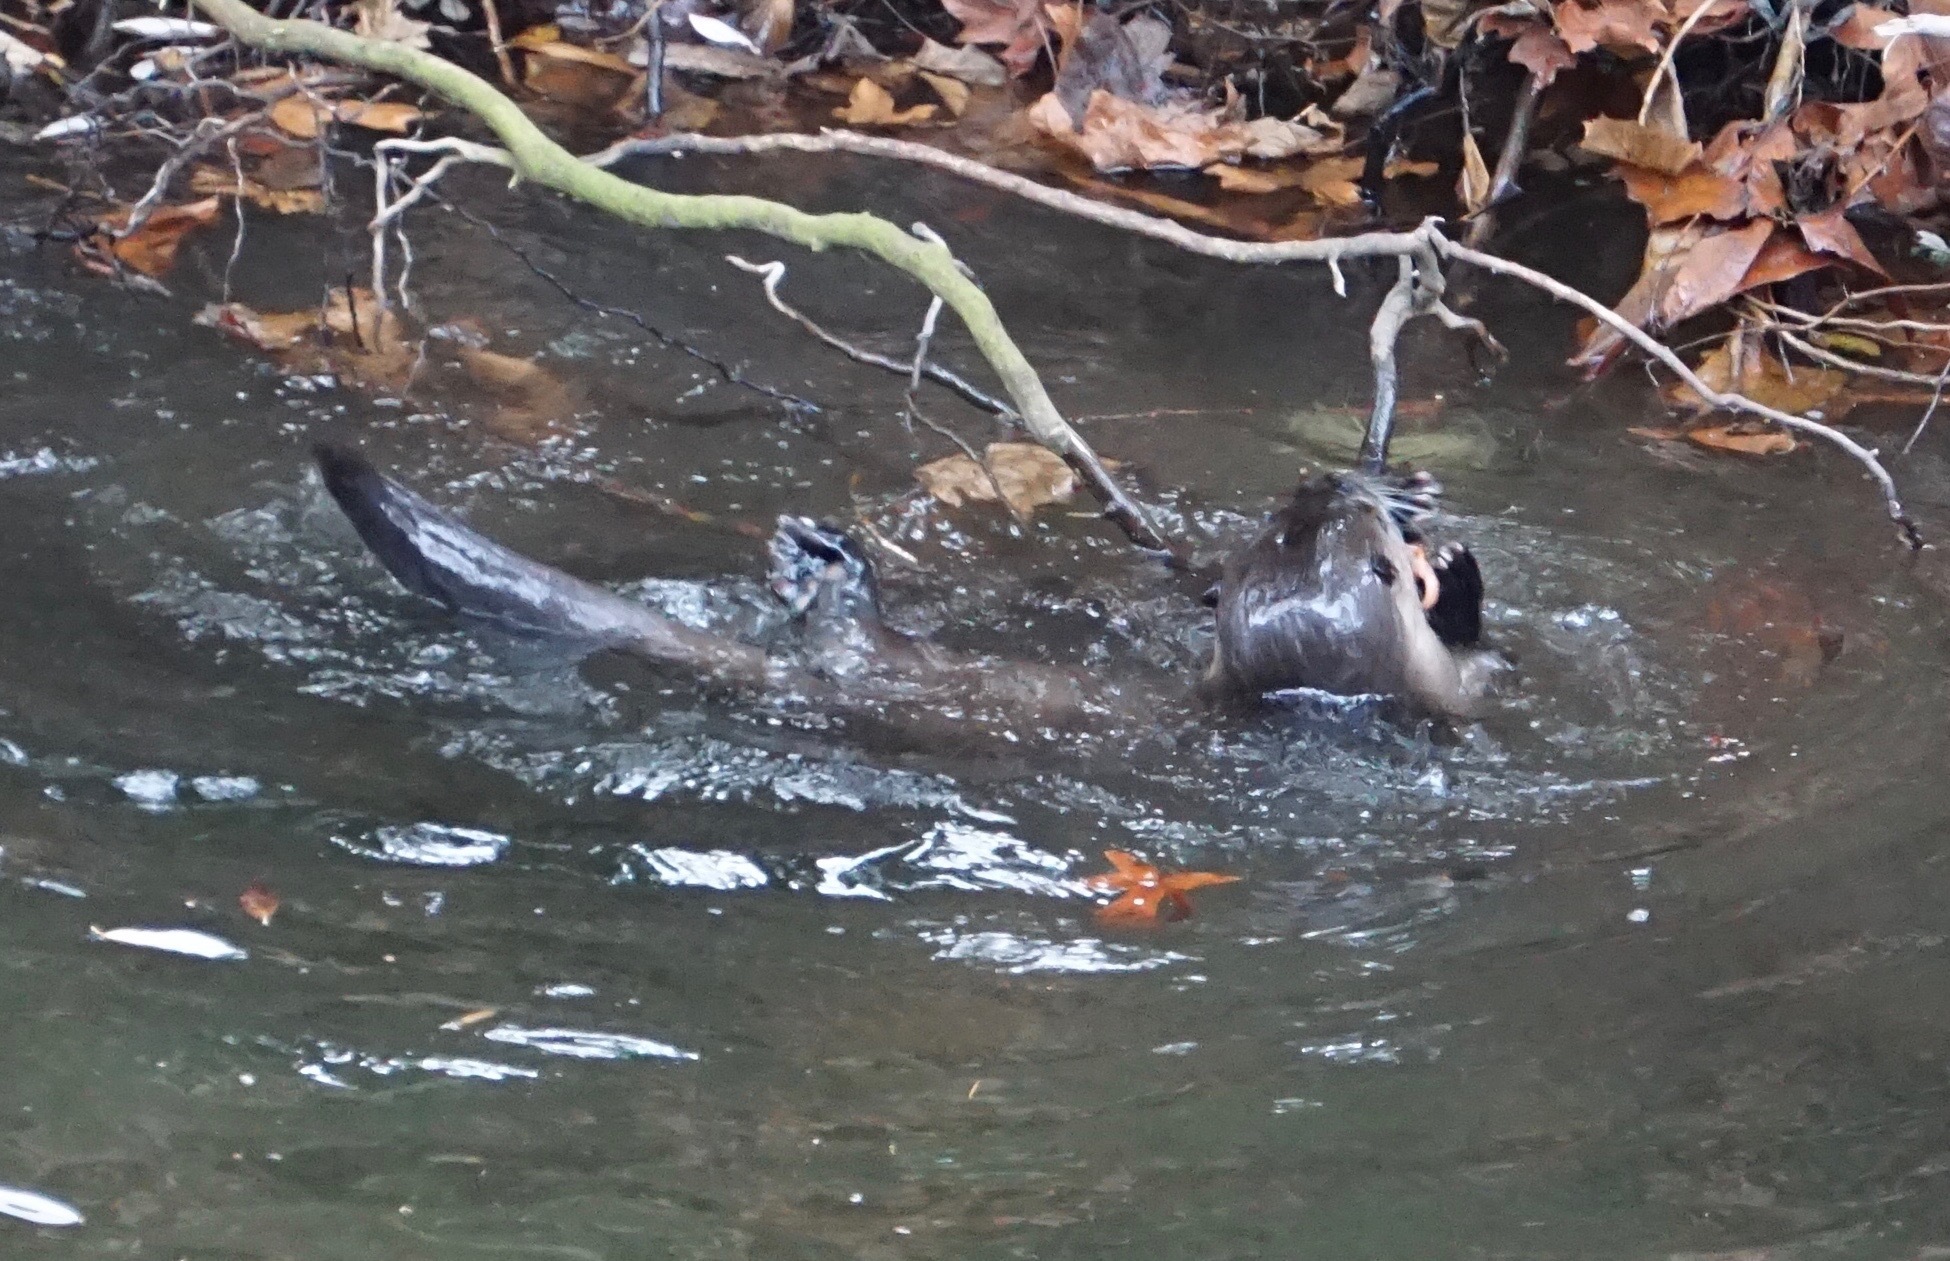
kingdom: Animalia
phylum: Chordata
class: Amphibia
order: Caudata
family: Salamandridae
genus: Taricha
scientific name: Taricha
